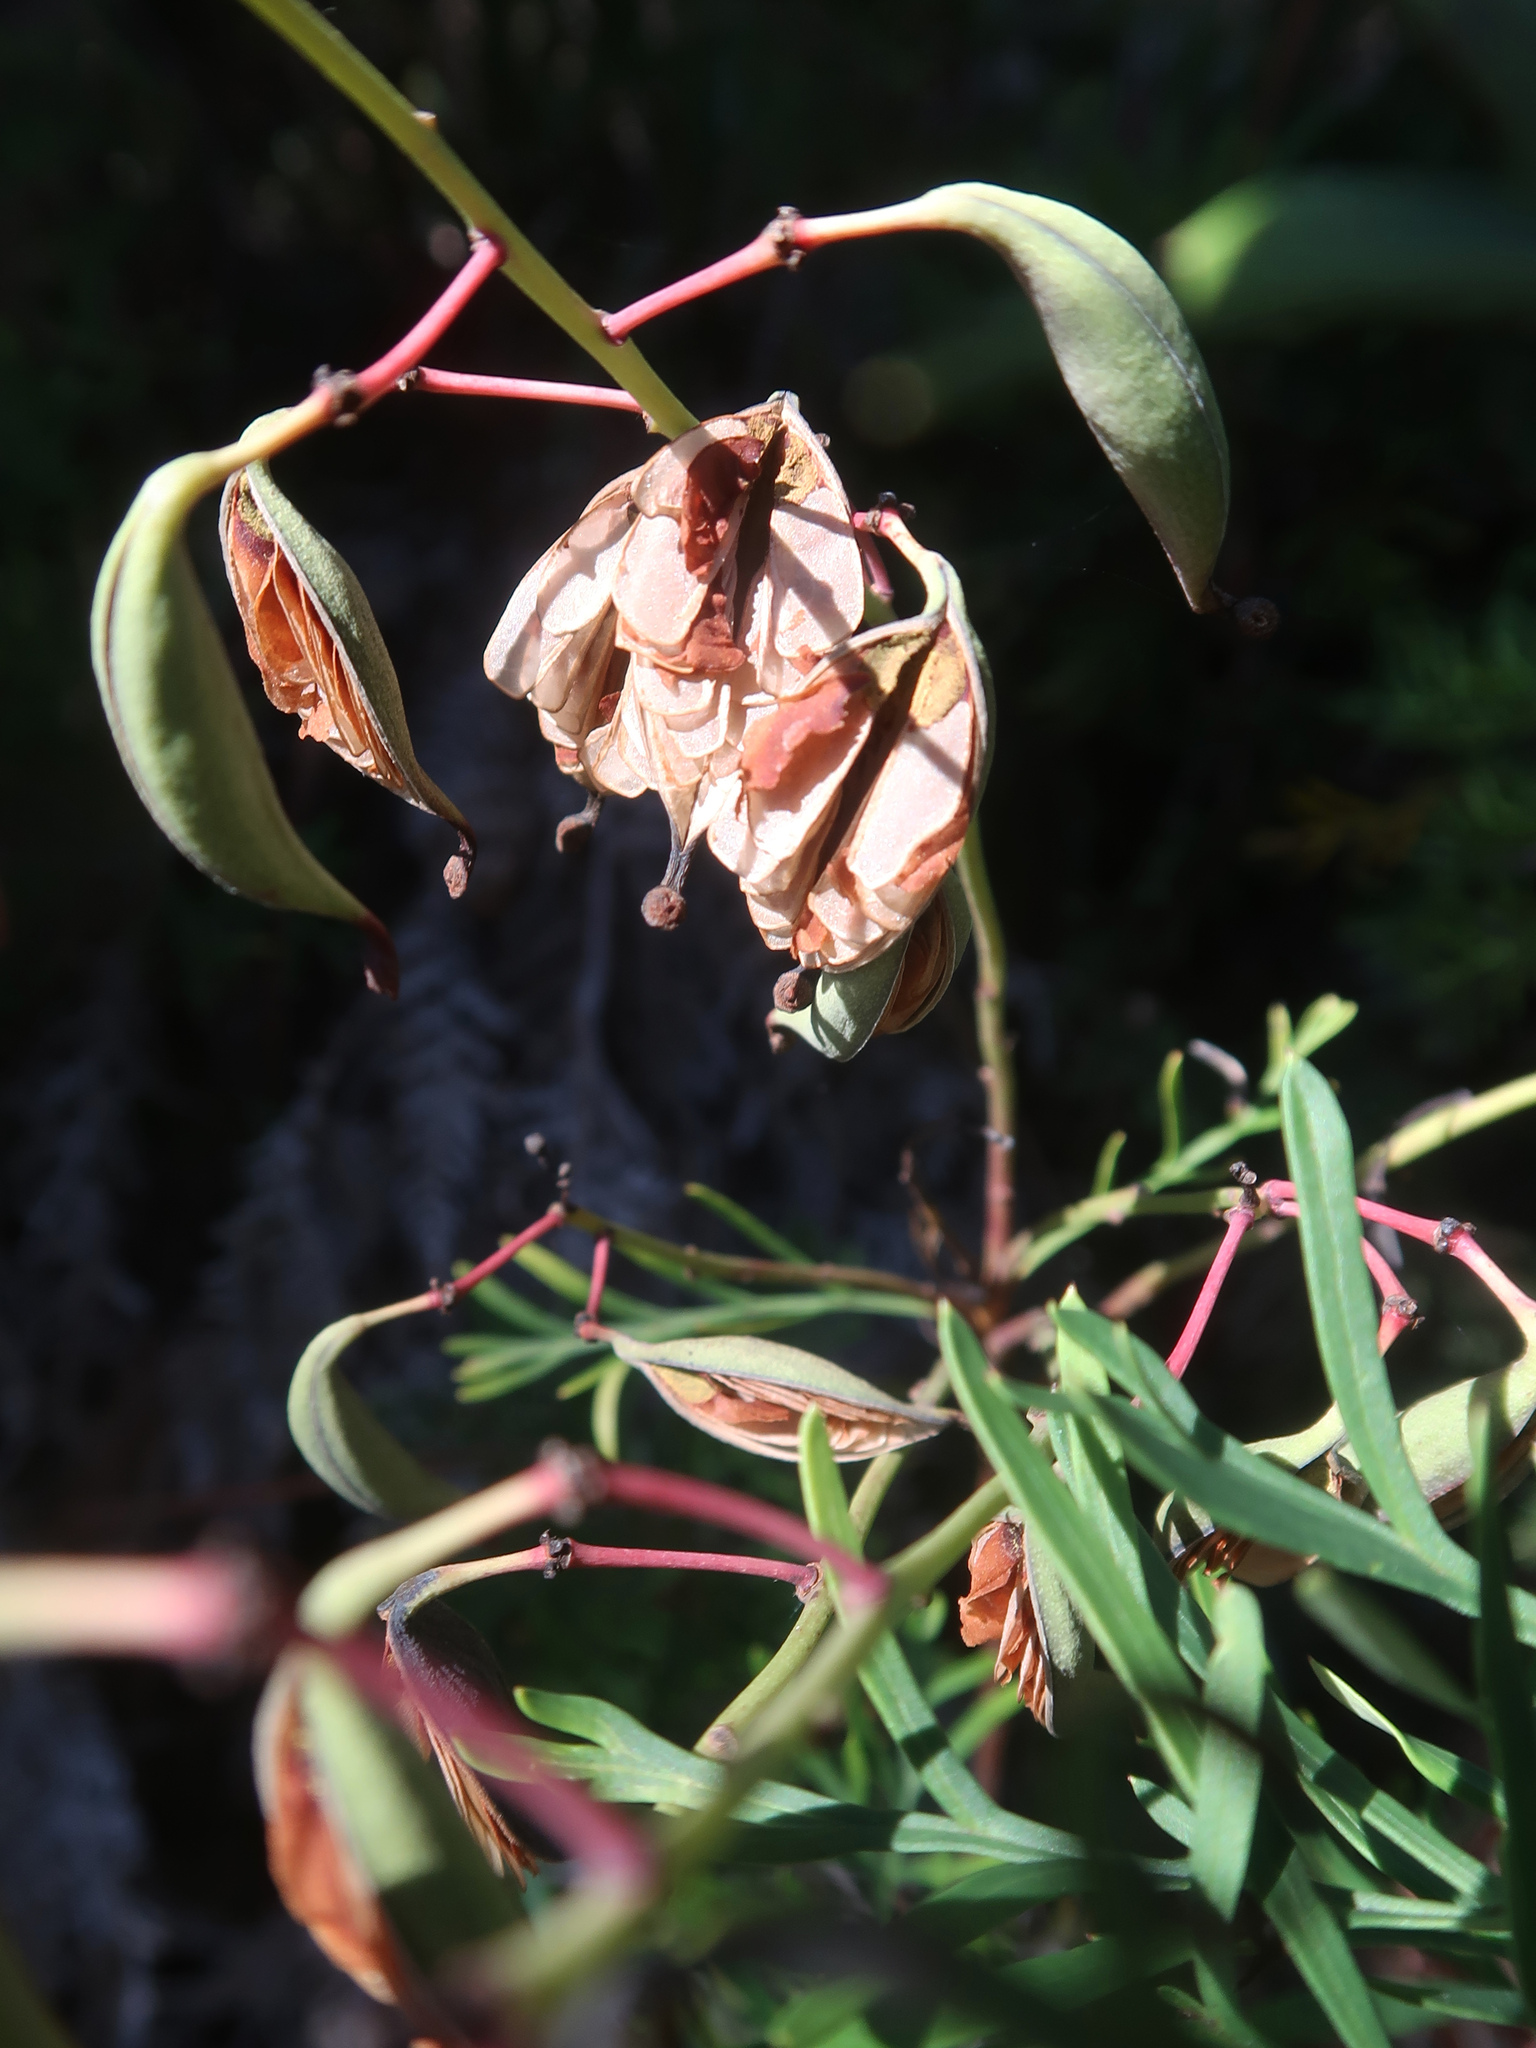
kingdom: Plantae
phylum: Tracheophyta
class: Magnoliopsida
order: Proteales
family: Proteaceae
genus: Lomatia
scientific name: Lomatia tinctoria
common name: Guitar plant
